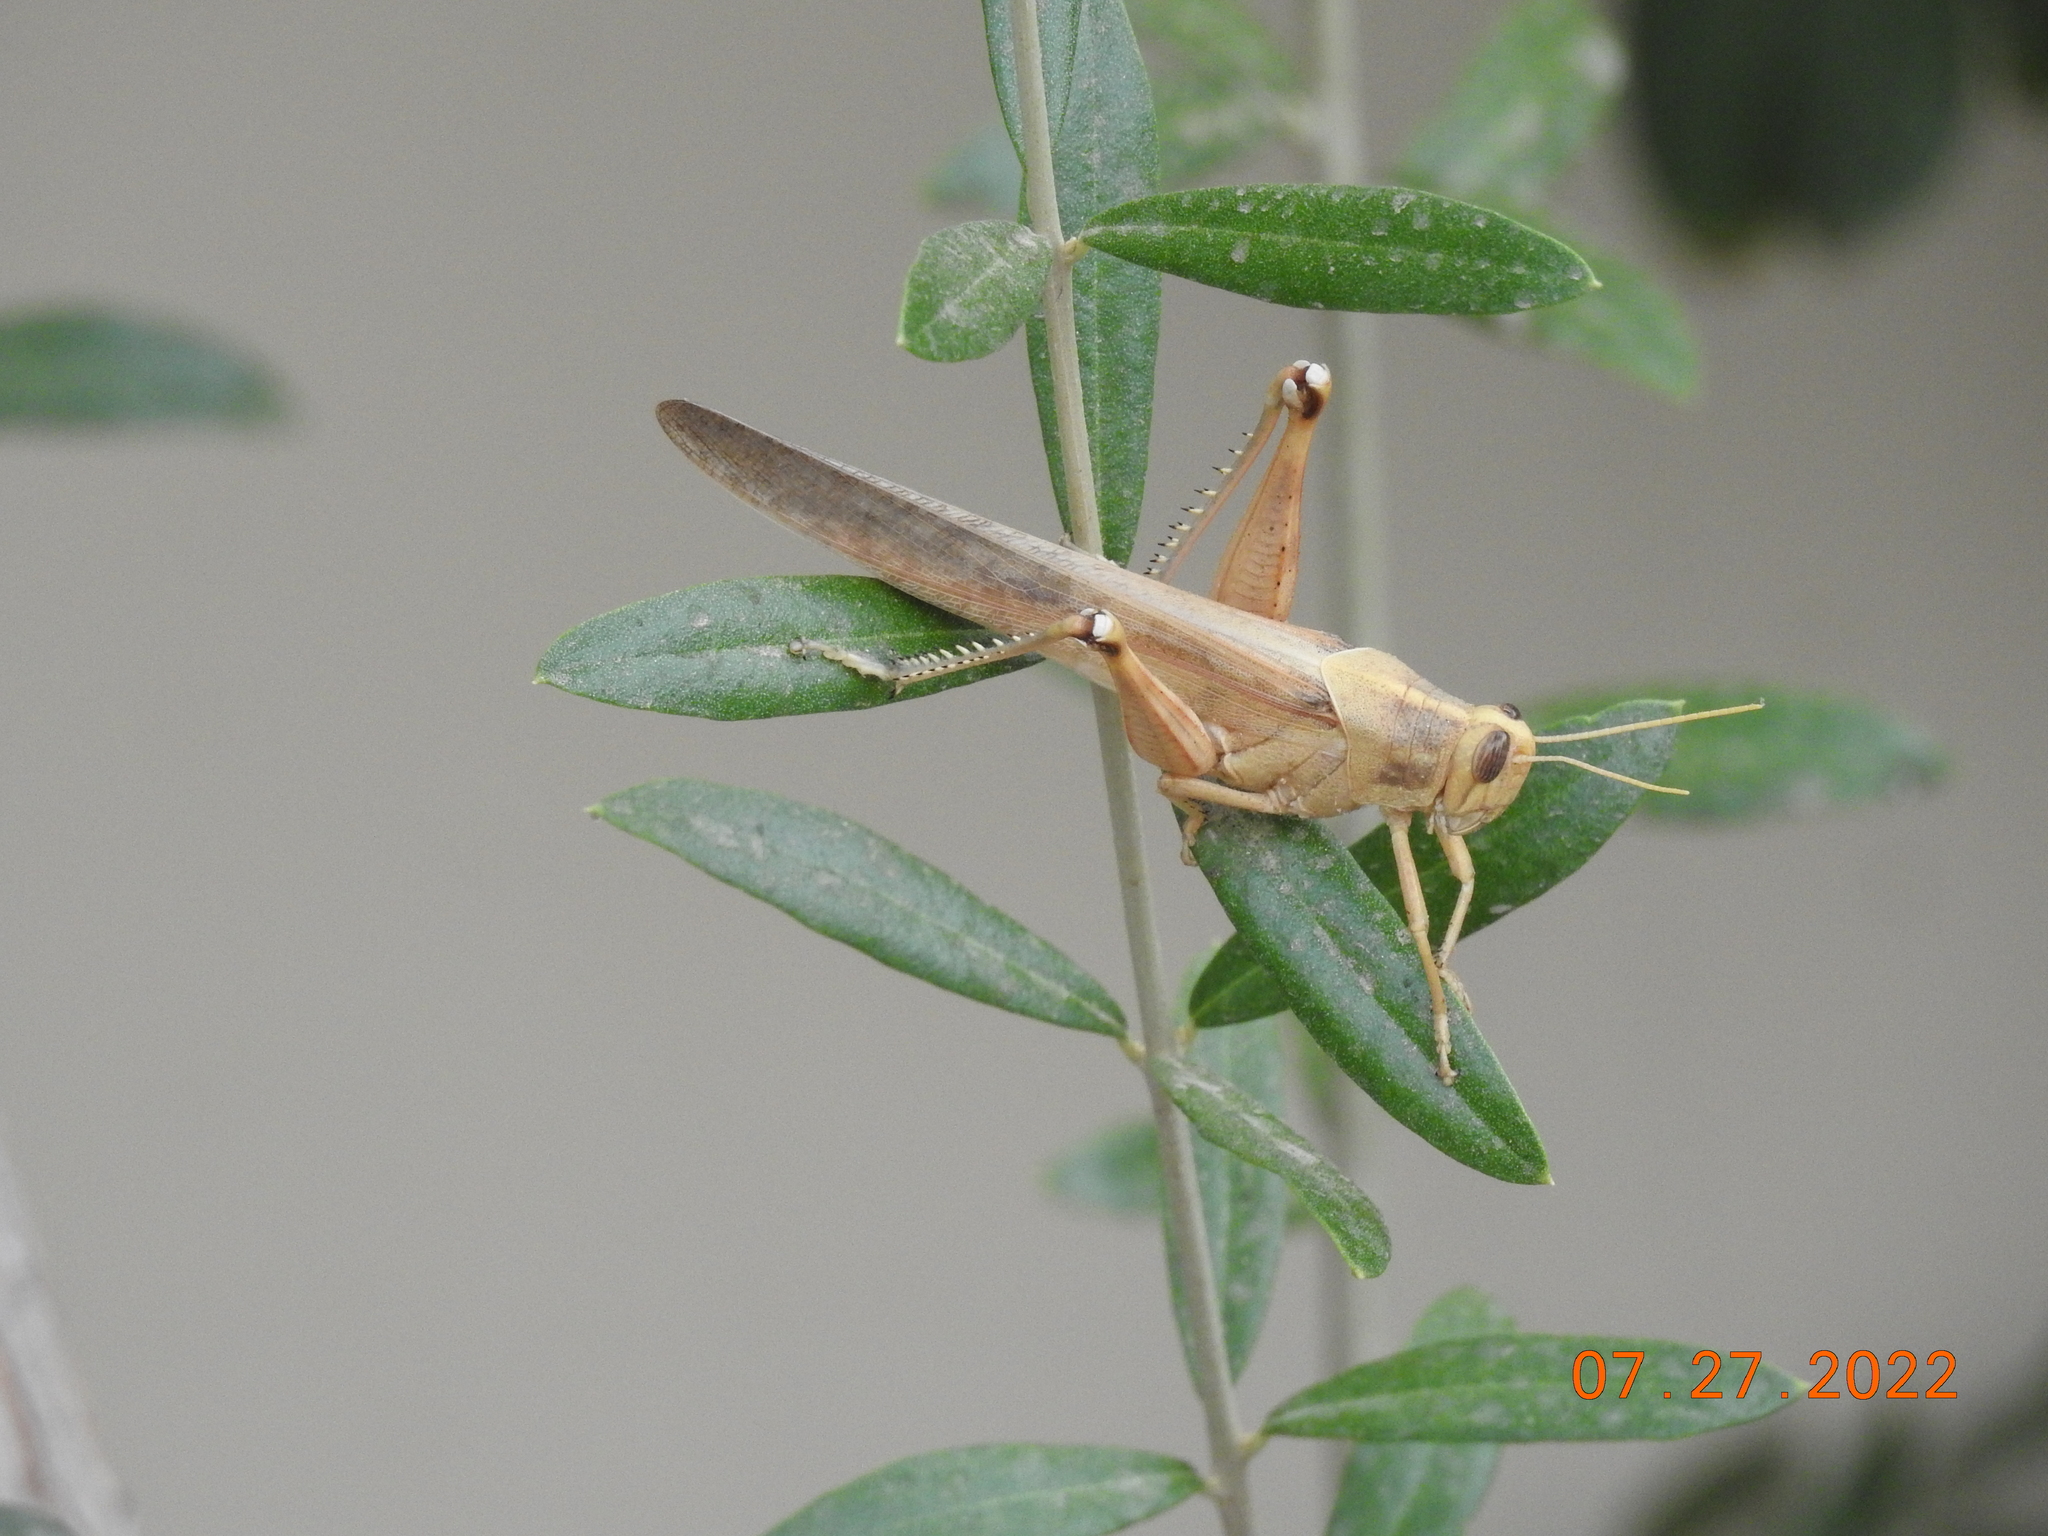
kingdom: Animalia
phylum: Arthropoda
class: Insecta
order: Orthoptera
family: Acrididae
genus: Schistocerca
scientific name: Schistocerca nitens
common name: Vagrant grasshopper
